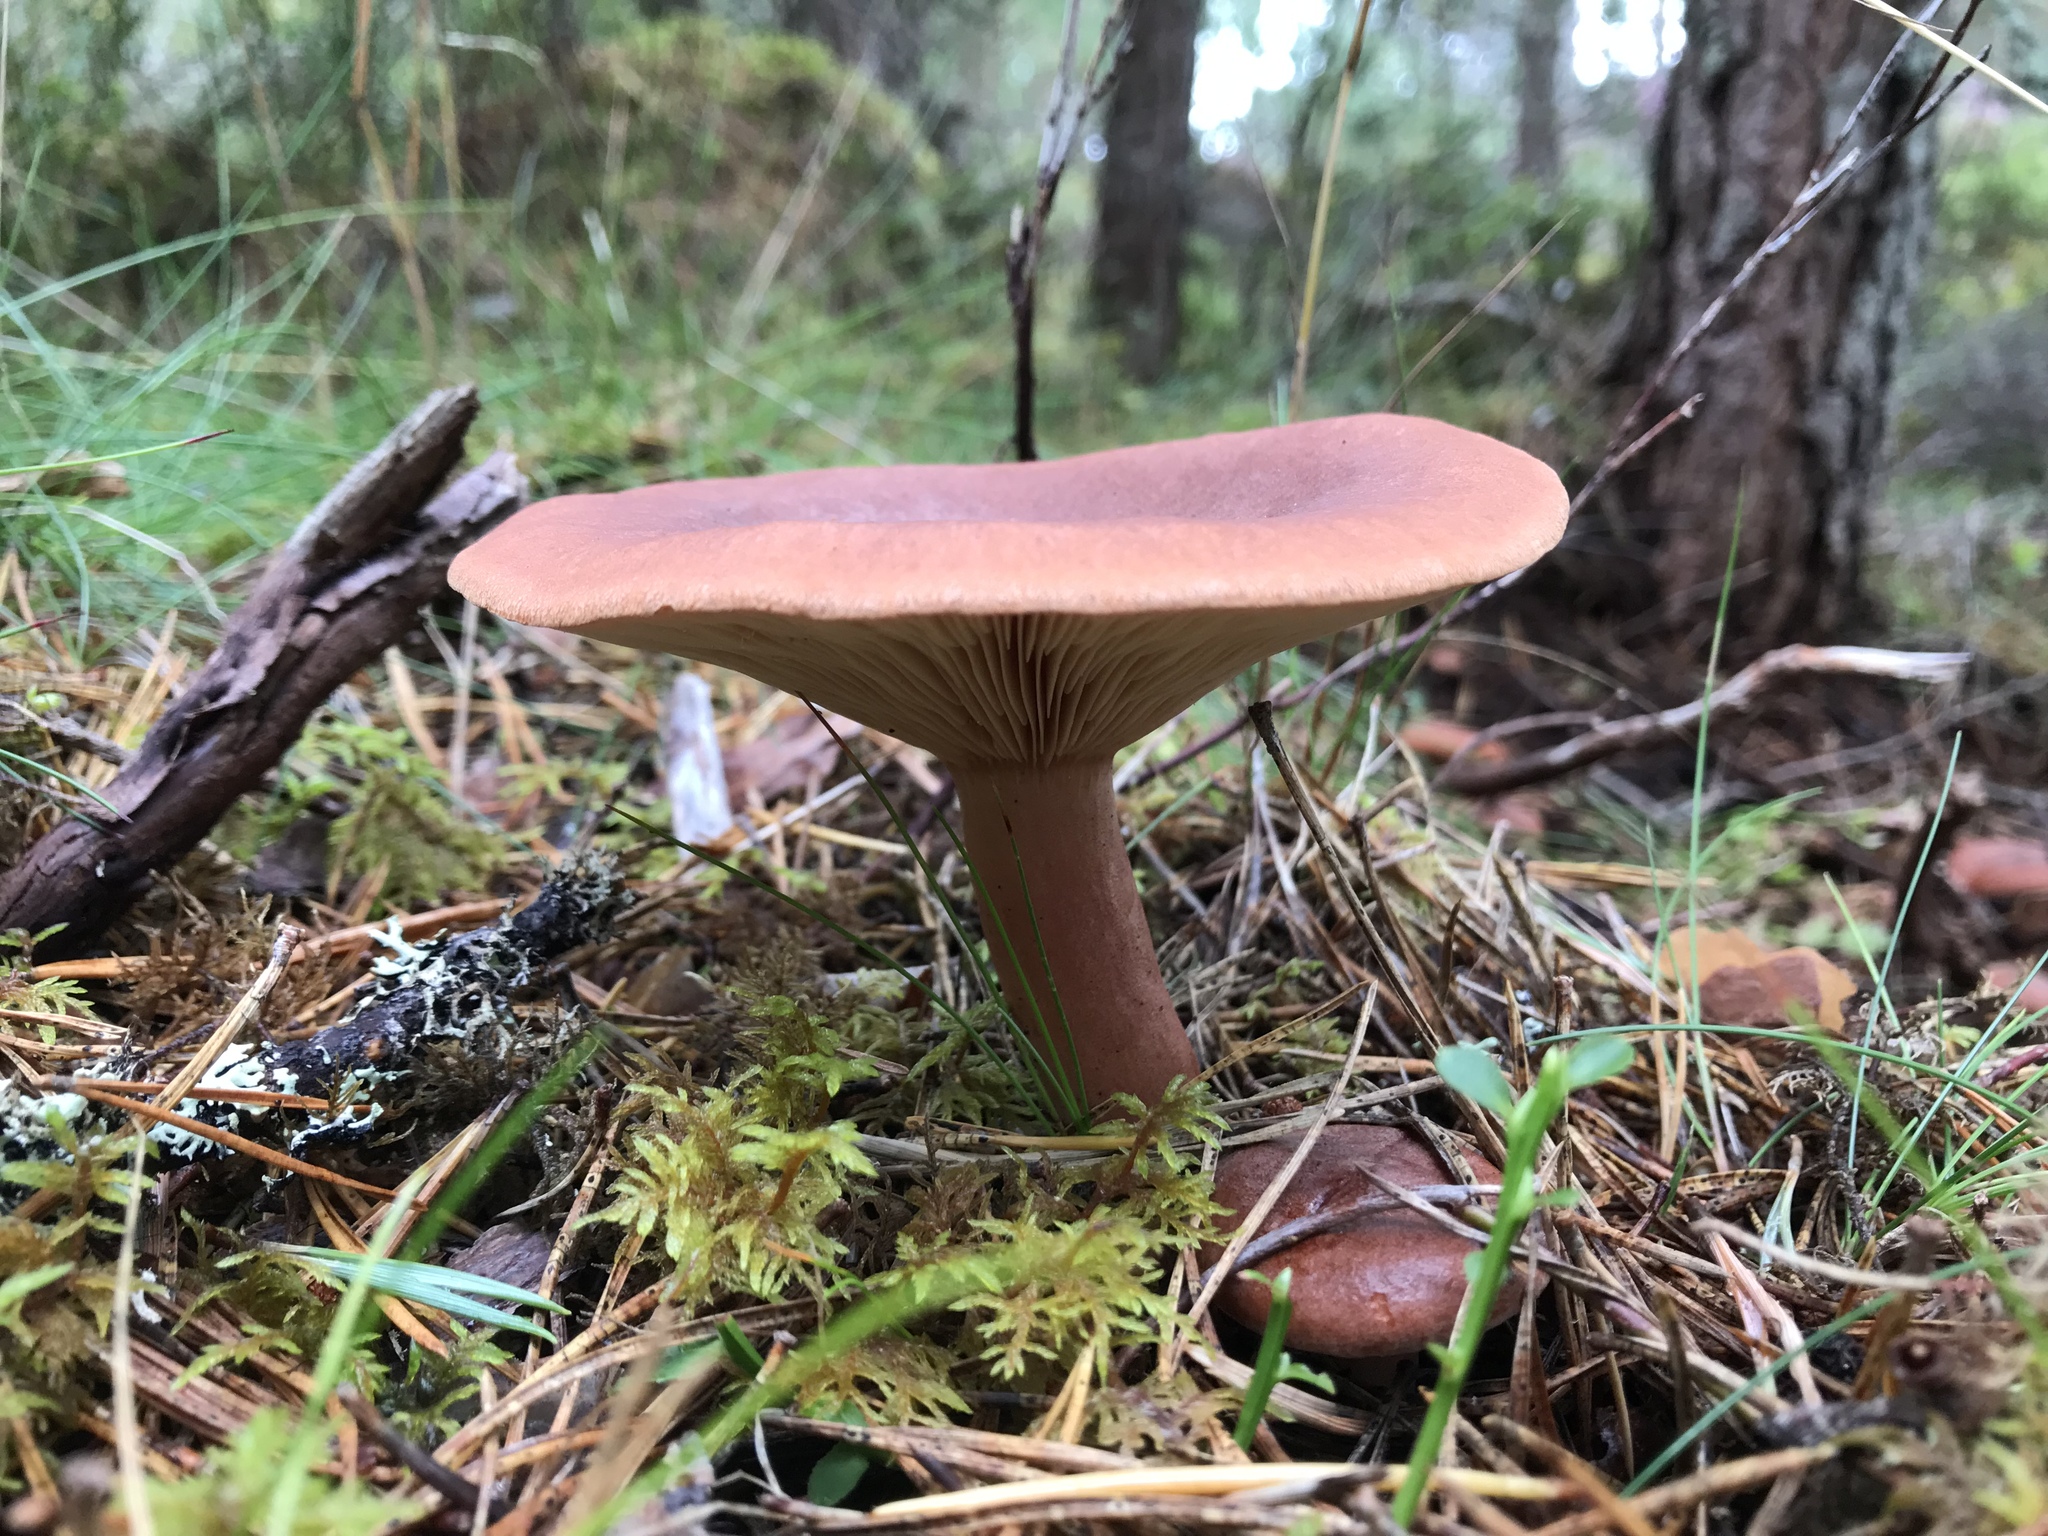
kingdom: Fungi
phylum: Basidiomycota
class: Agaricomycetes
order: Russulales
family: Russulaceae
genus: Lactarius
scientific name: Lactarius rufus
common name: Rufous milk-cap
